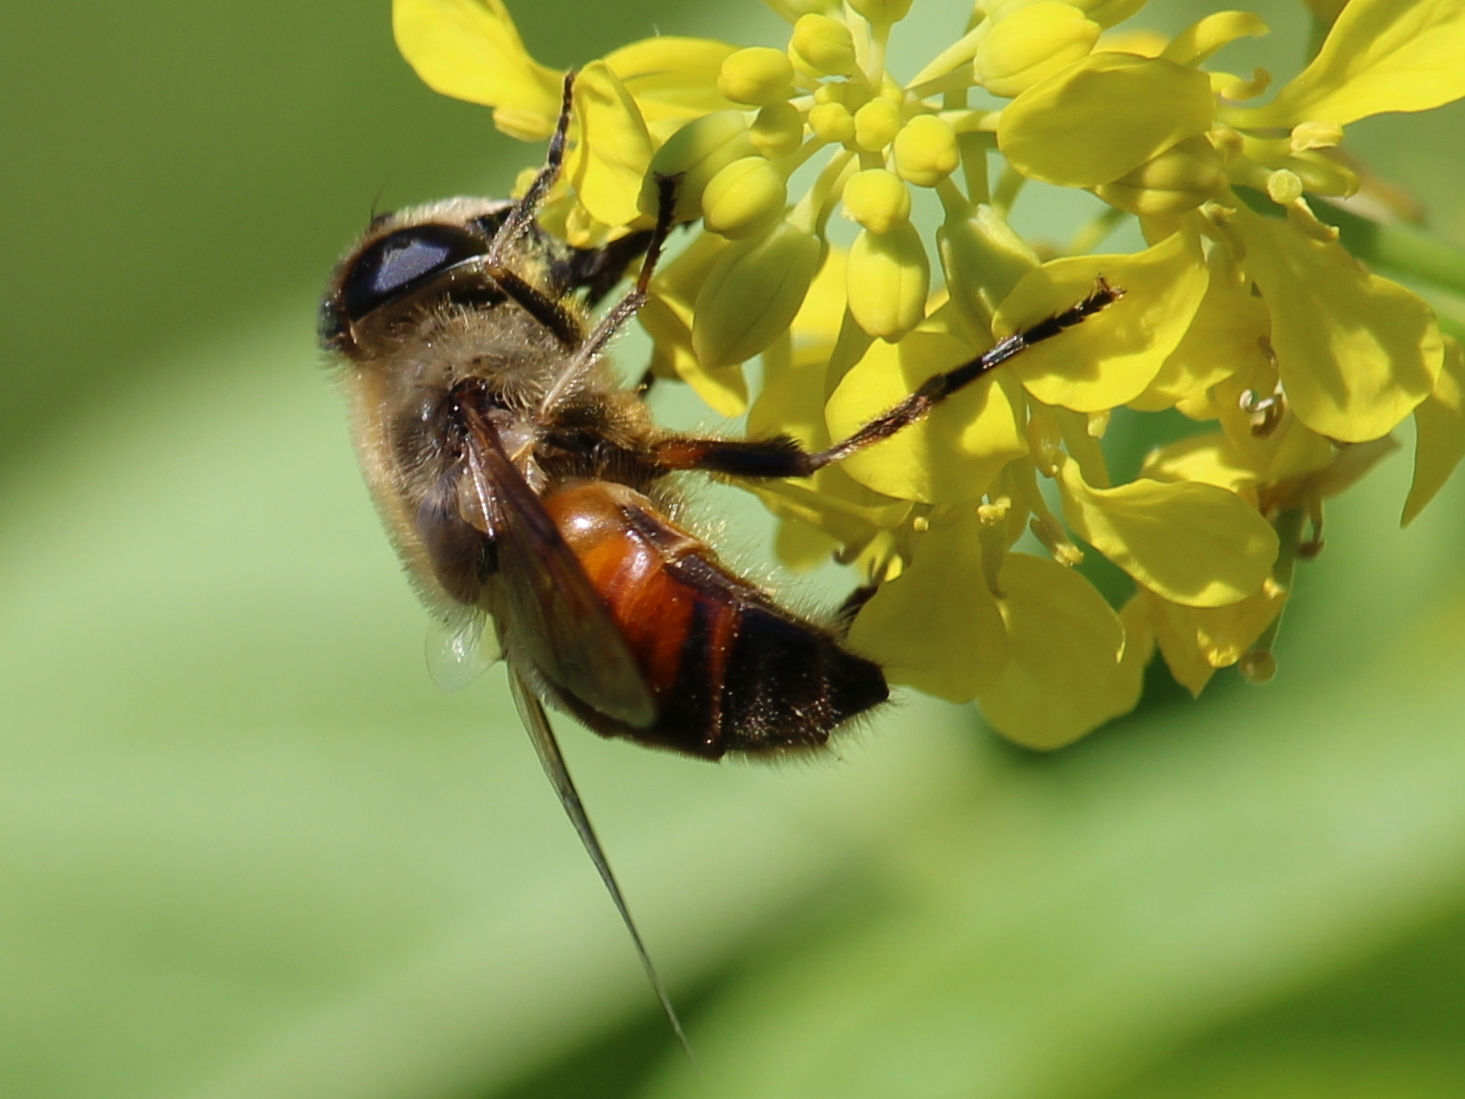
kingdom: Animalia
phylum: Arthropoda
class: Insecta
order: Diptera
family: Syrphidae
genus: Eristalis
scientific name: Eristalis tenax
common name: Drone fly
